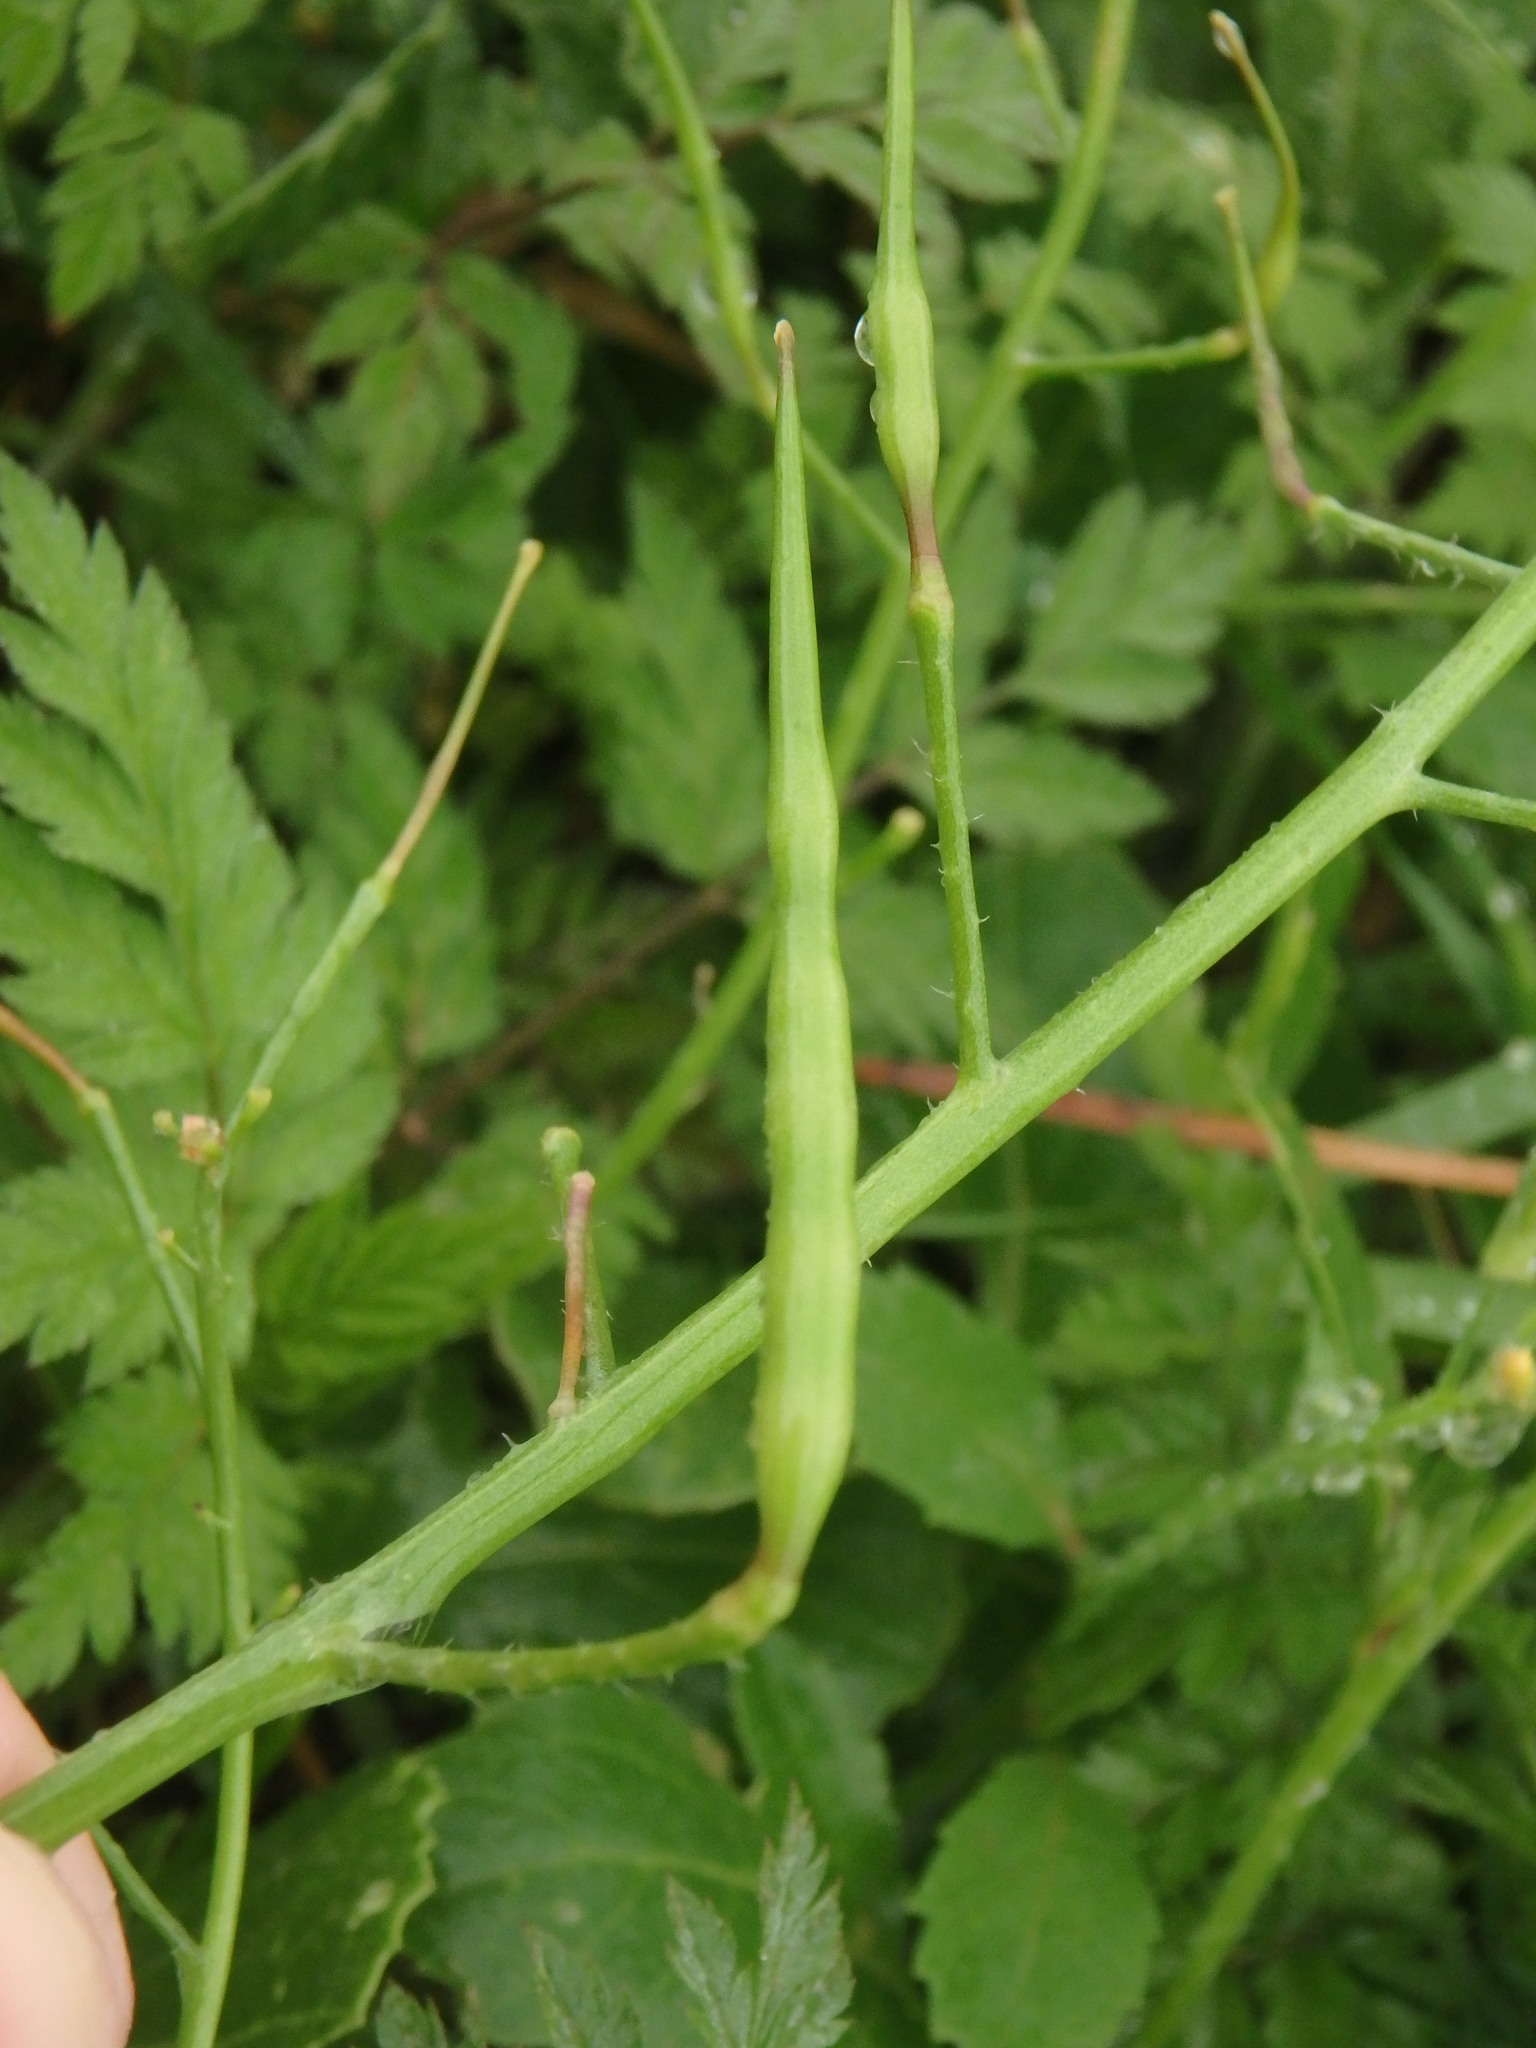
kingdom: Plantae
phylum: Tracheophyta
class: Magnoliopsida
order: Brassicales
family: Brassicaceae
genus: Raphanus
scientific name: Raphanus raphanistrum
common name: Wild radish
